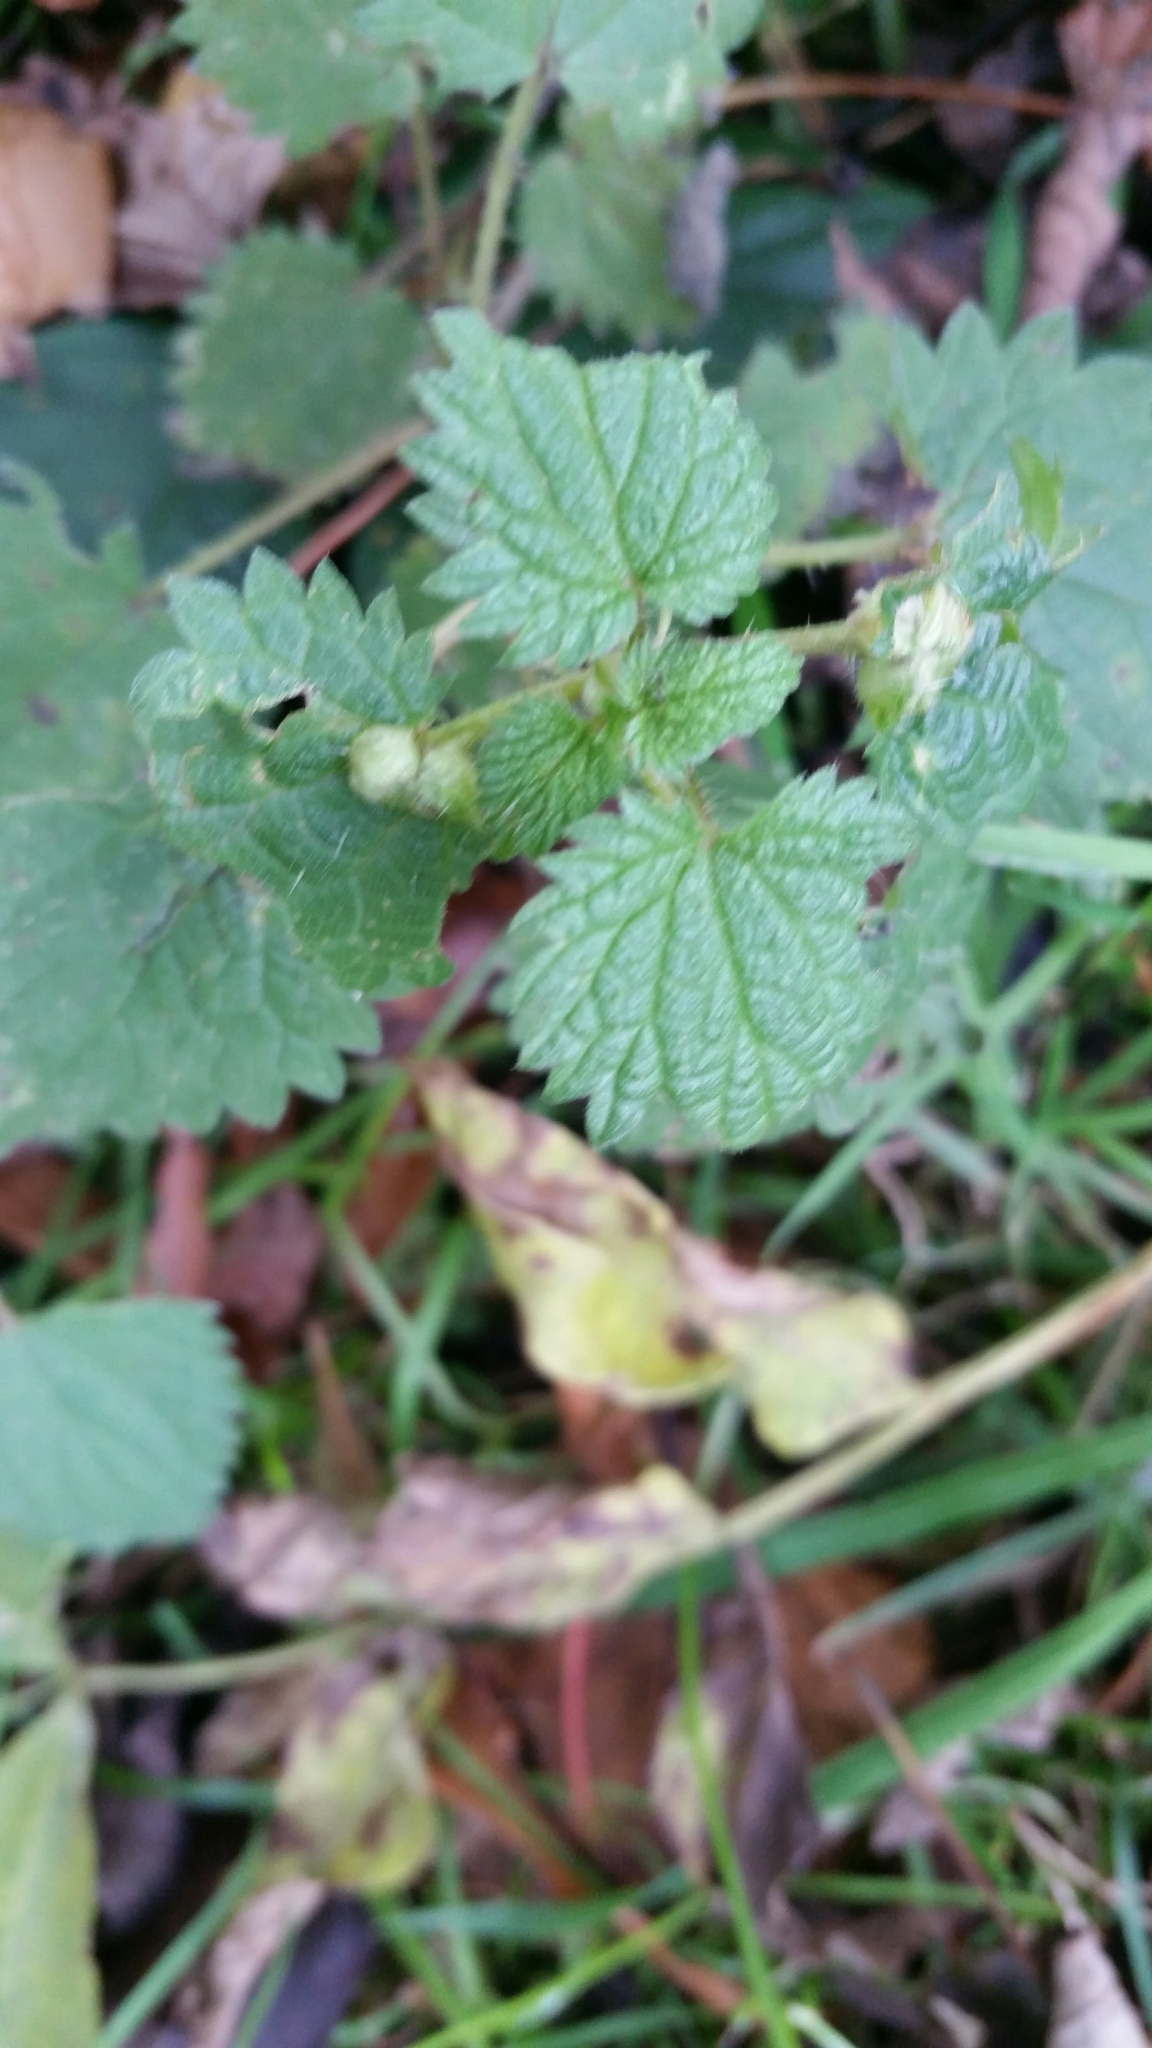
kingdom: Animalia
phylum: Arthropoda
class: Insecta
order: Diptera
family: Cecidomyiidae
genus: Dasineura
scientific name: Dasineura urticae
